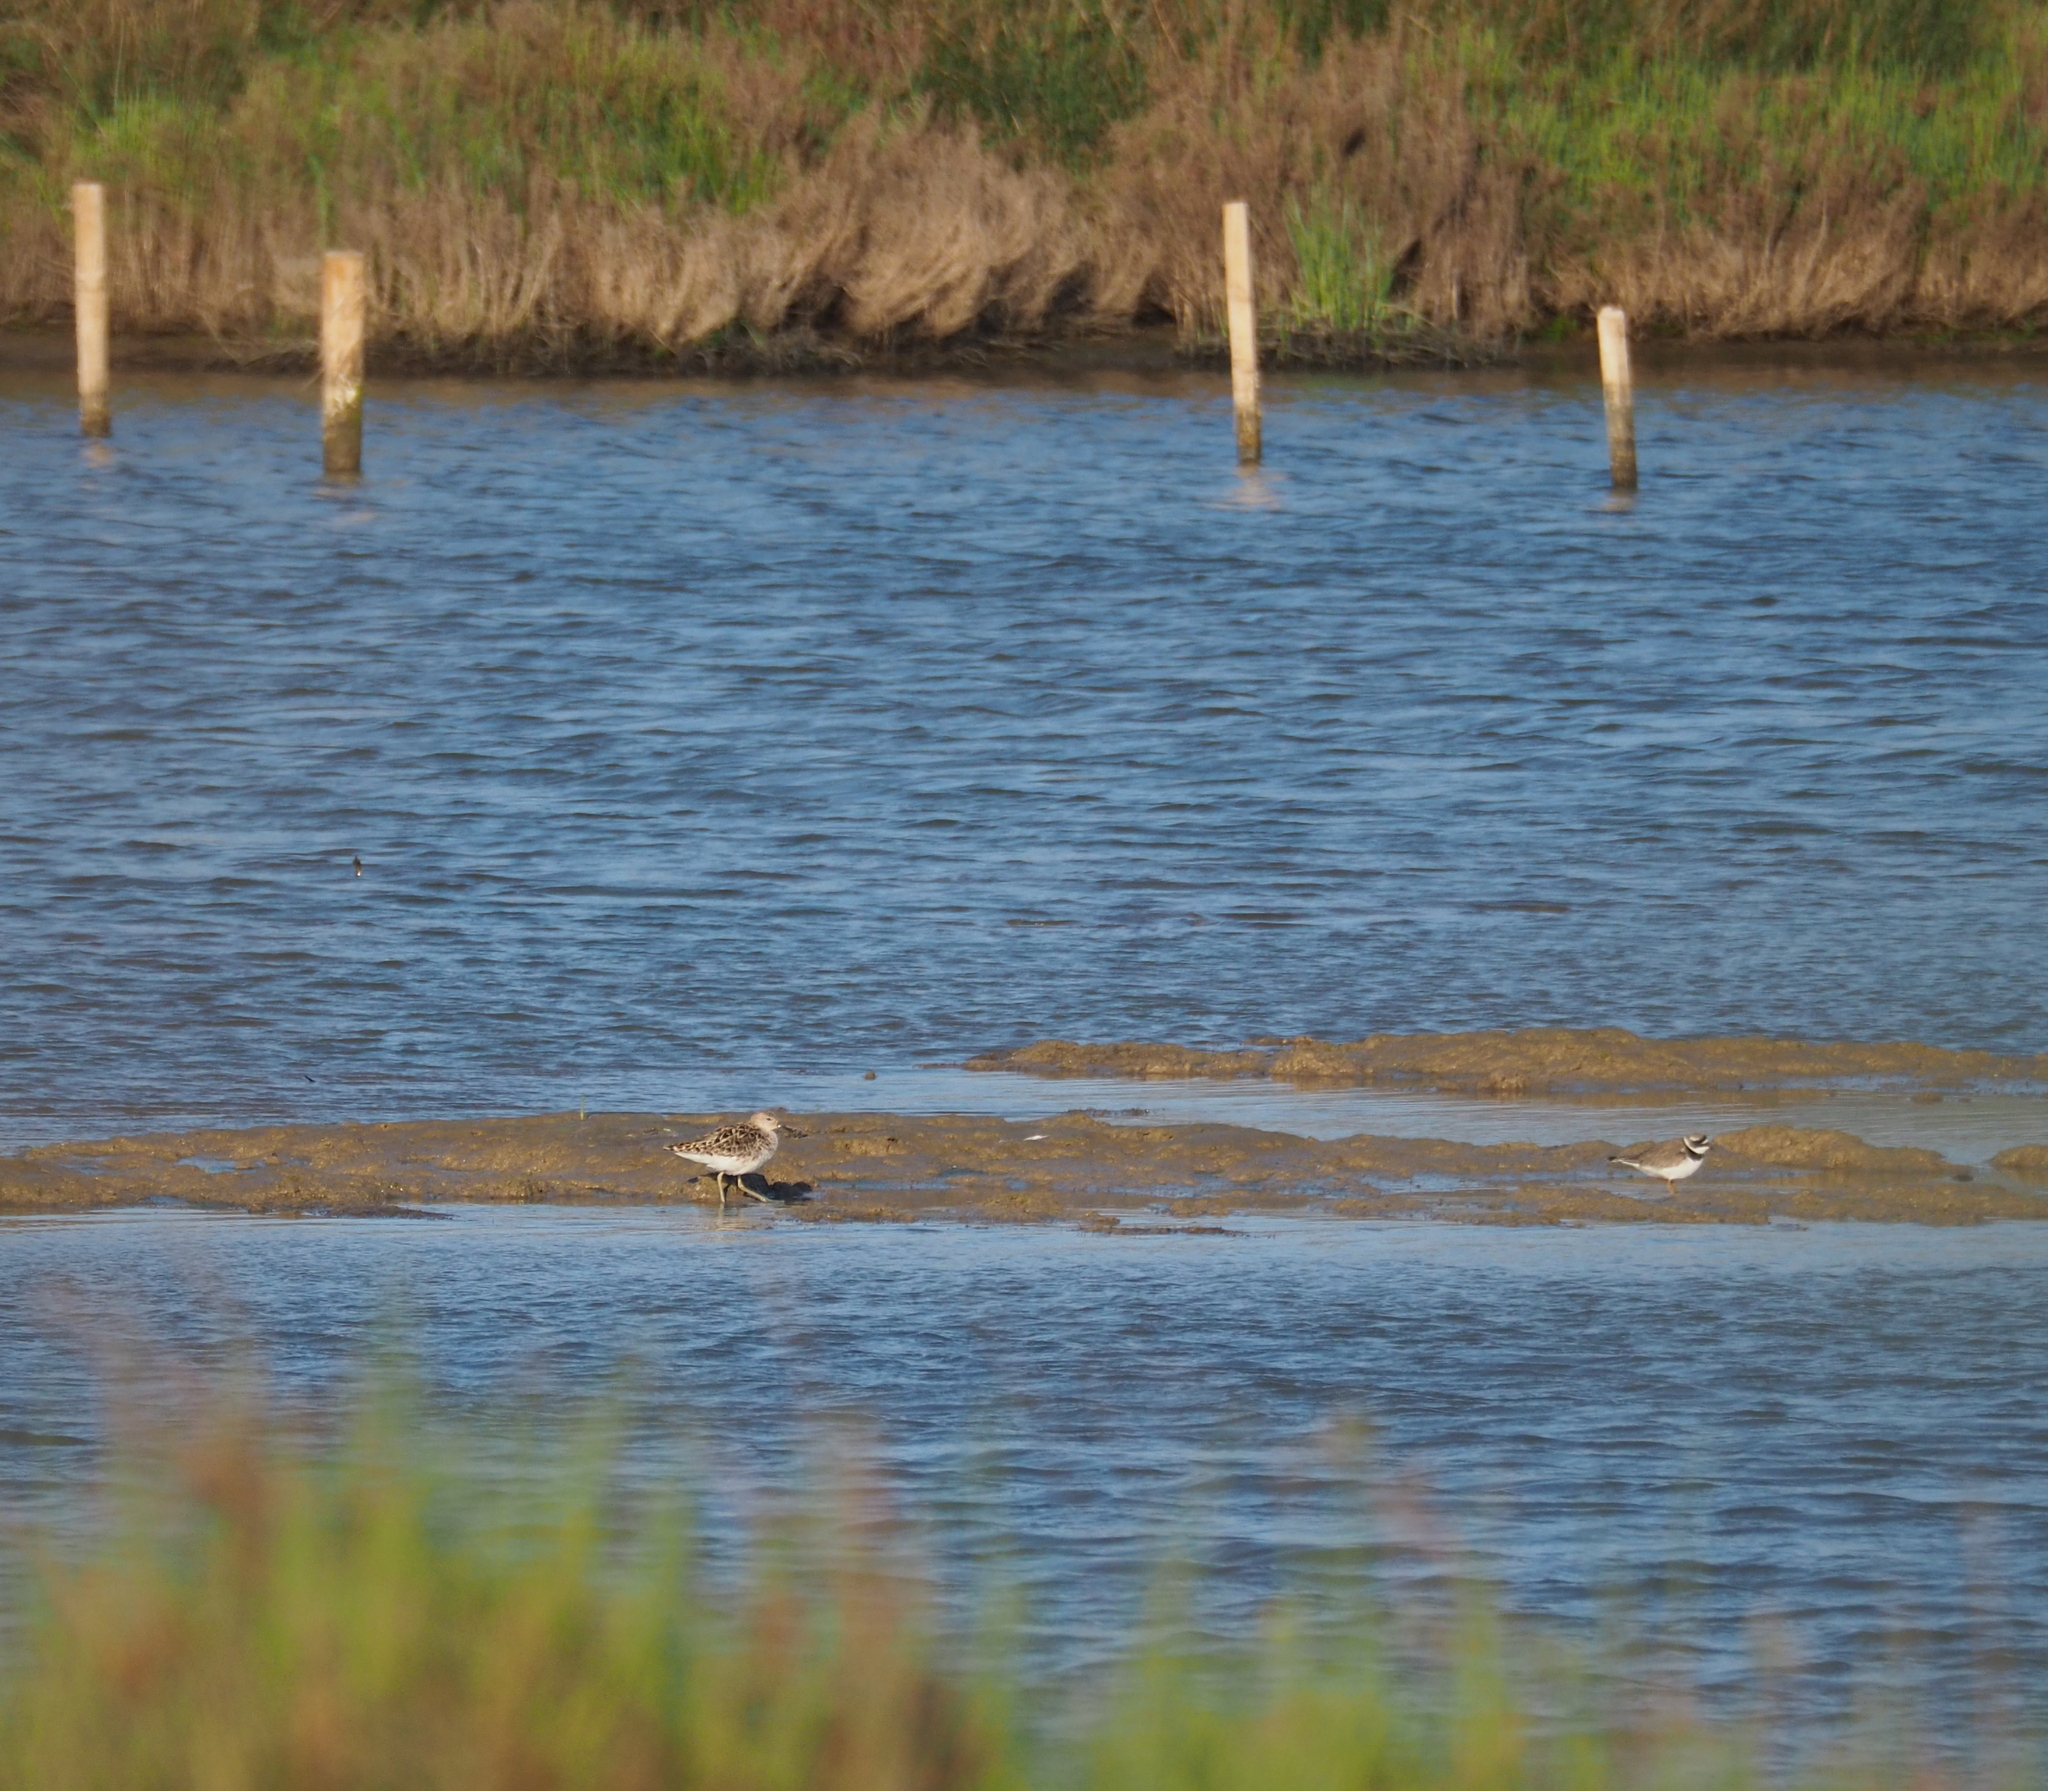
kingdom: Animalia
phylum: Chordata
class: Aves
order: Charadriiformes
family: Scolopacidae
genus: Calidris
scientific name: Calidris pugnax
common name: Ruff
